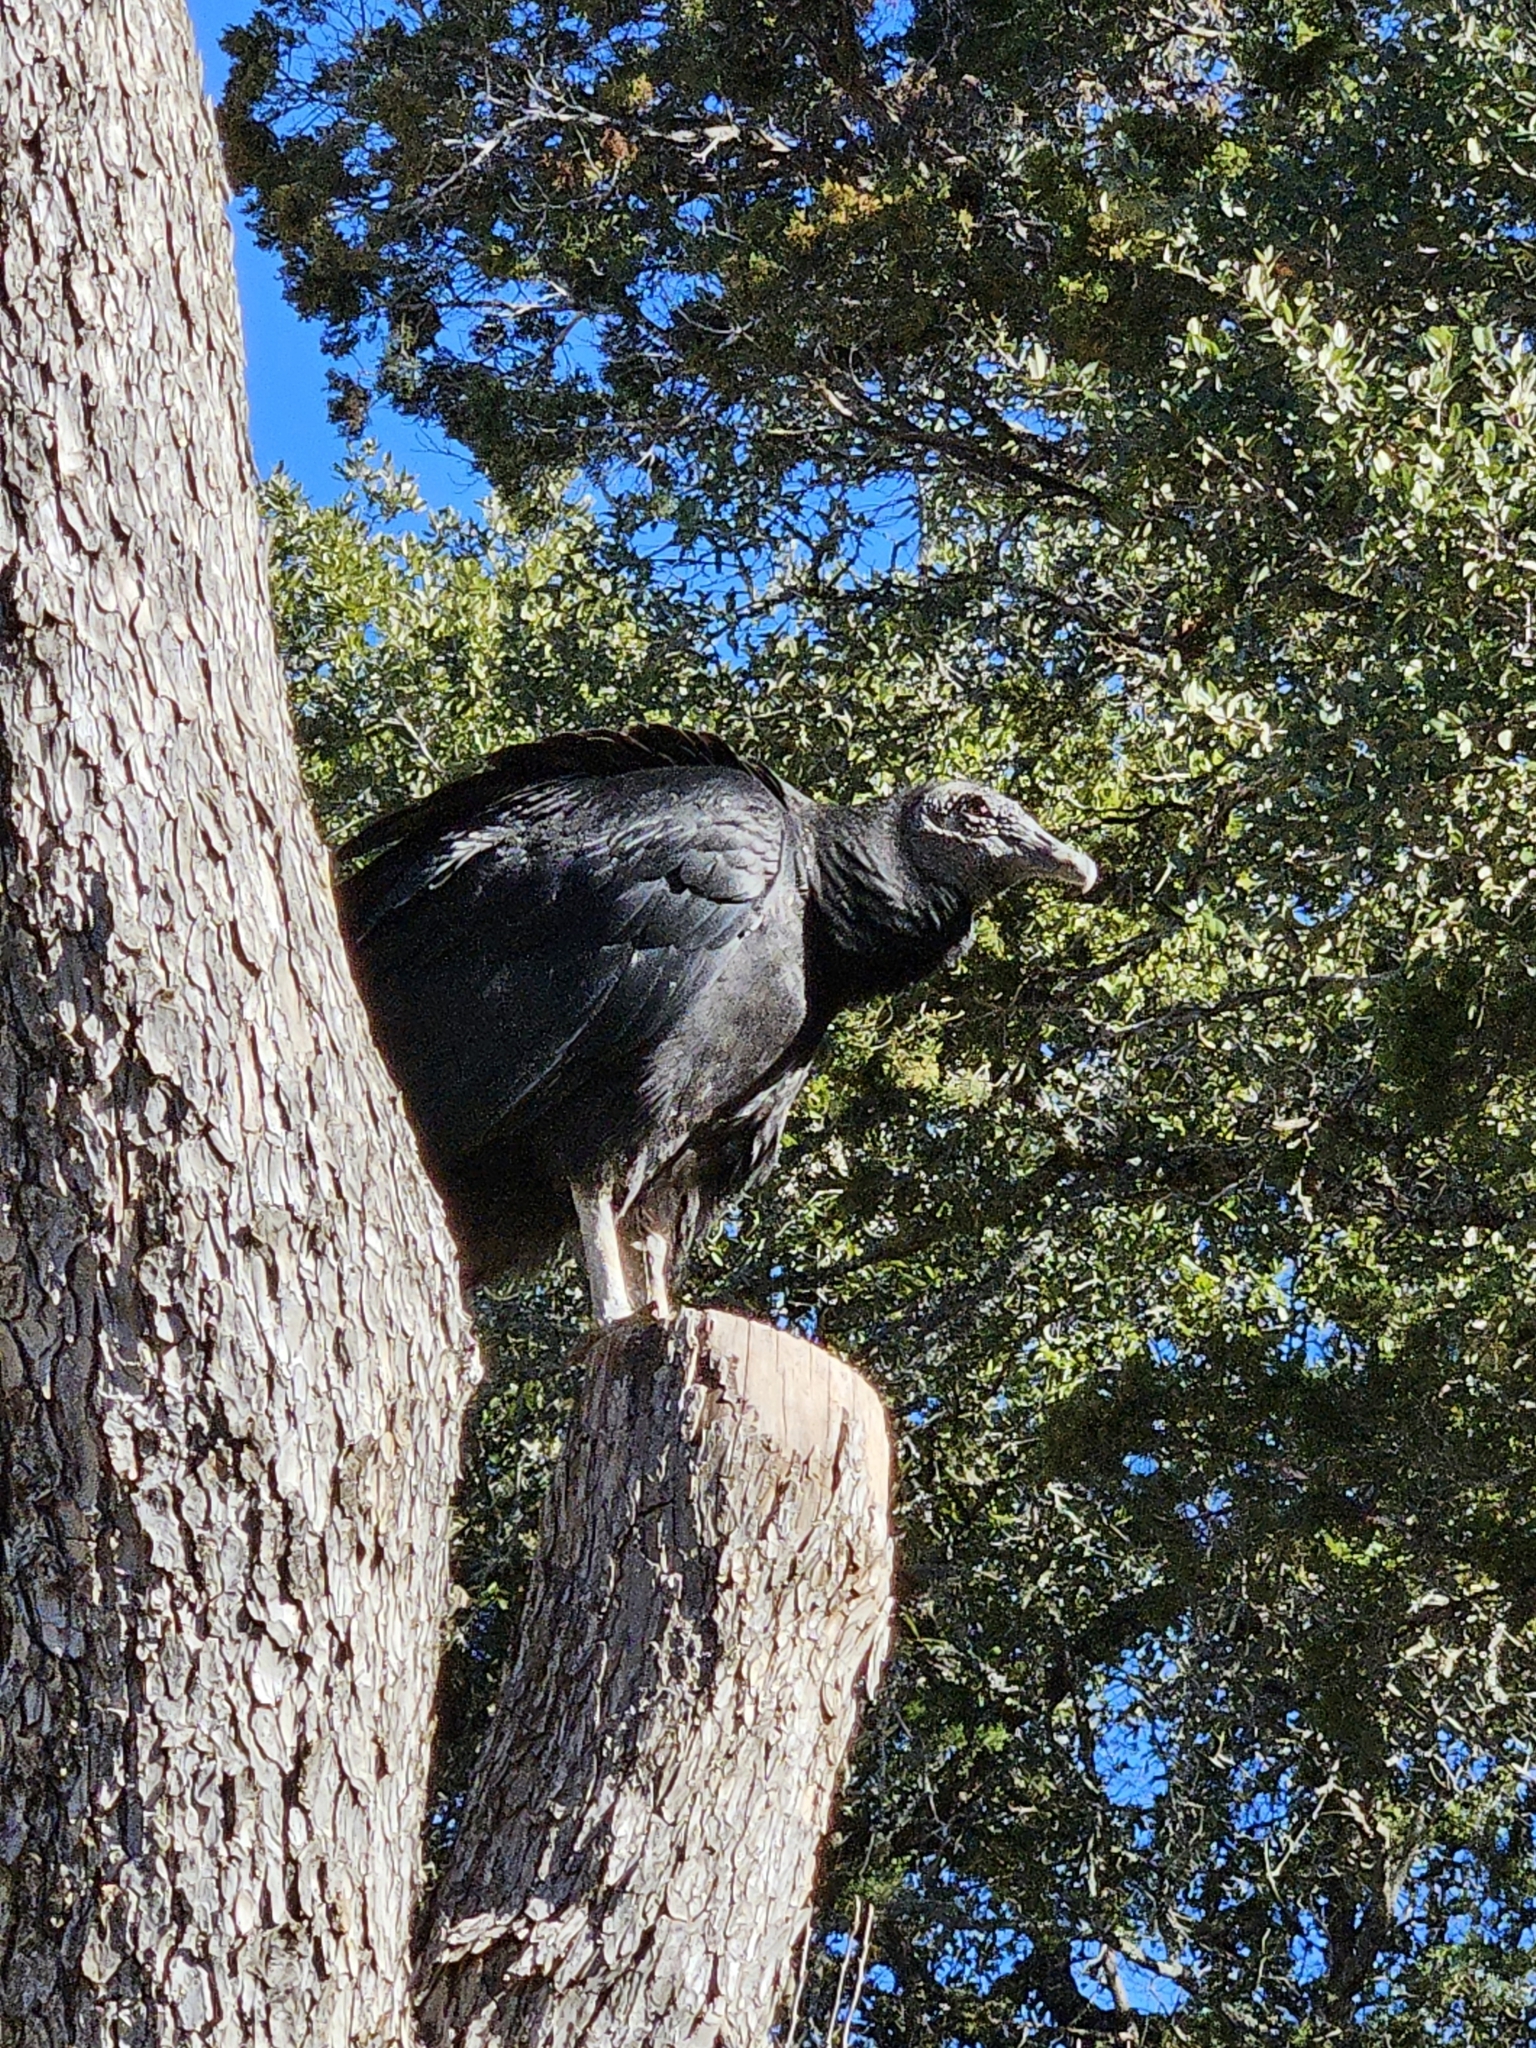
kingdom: Animalia
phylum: Chordata
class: Aves
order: Accipitriformes
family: Cathartidae
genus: Coragyps
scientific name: Coragyps atratus
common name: Black vulture
